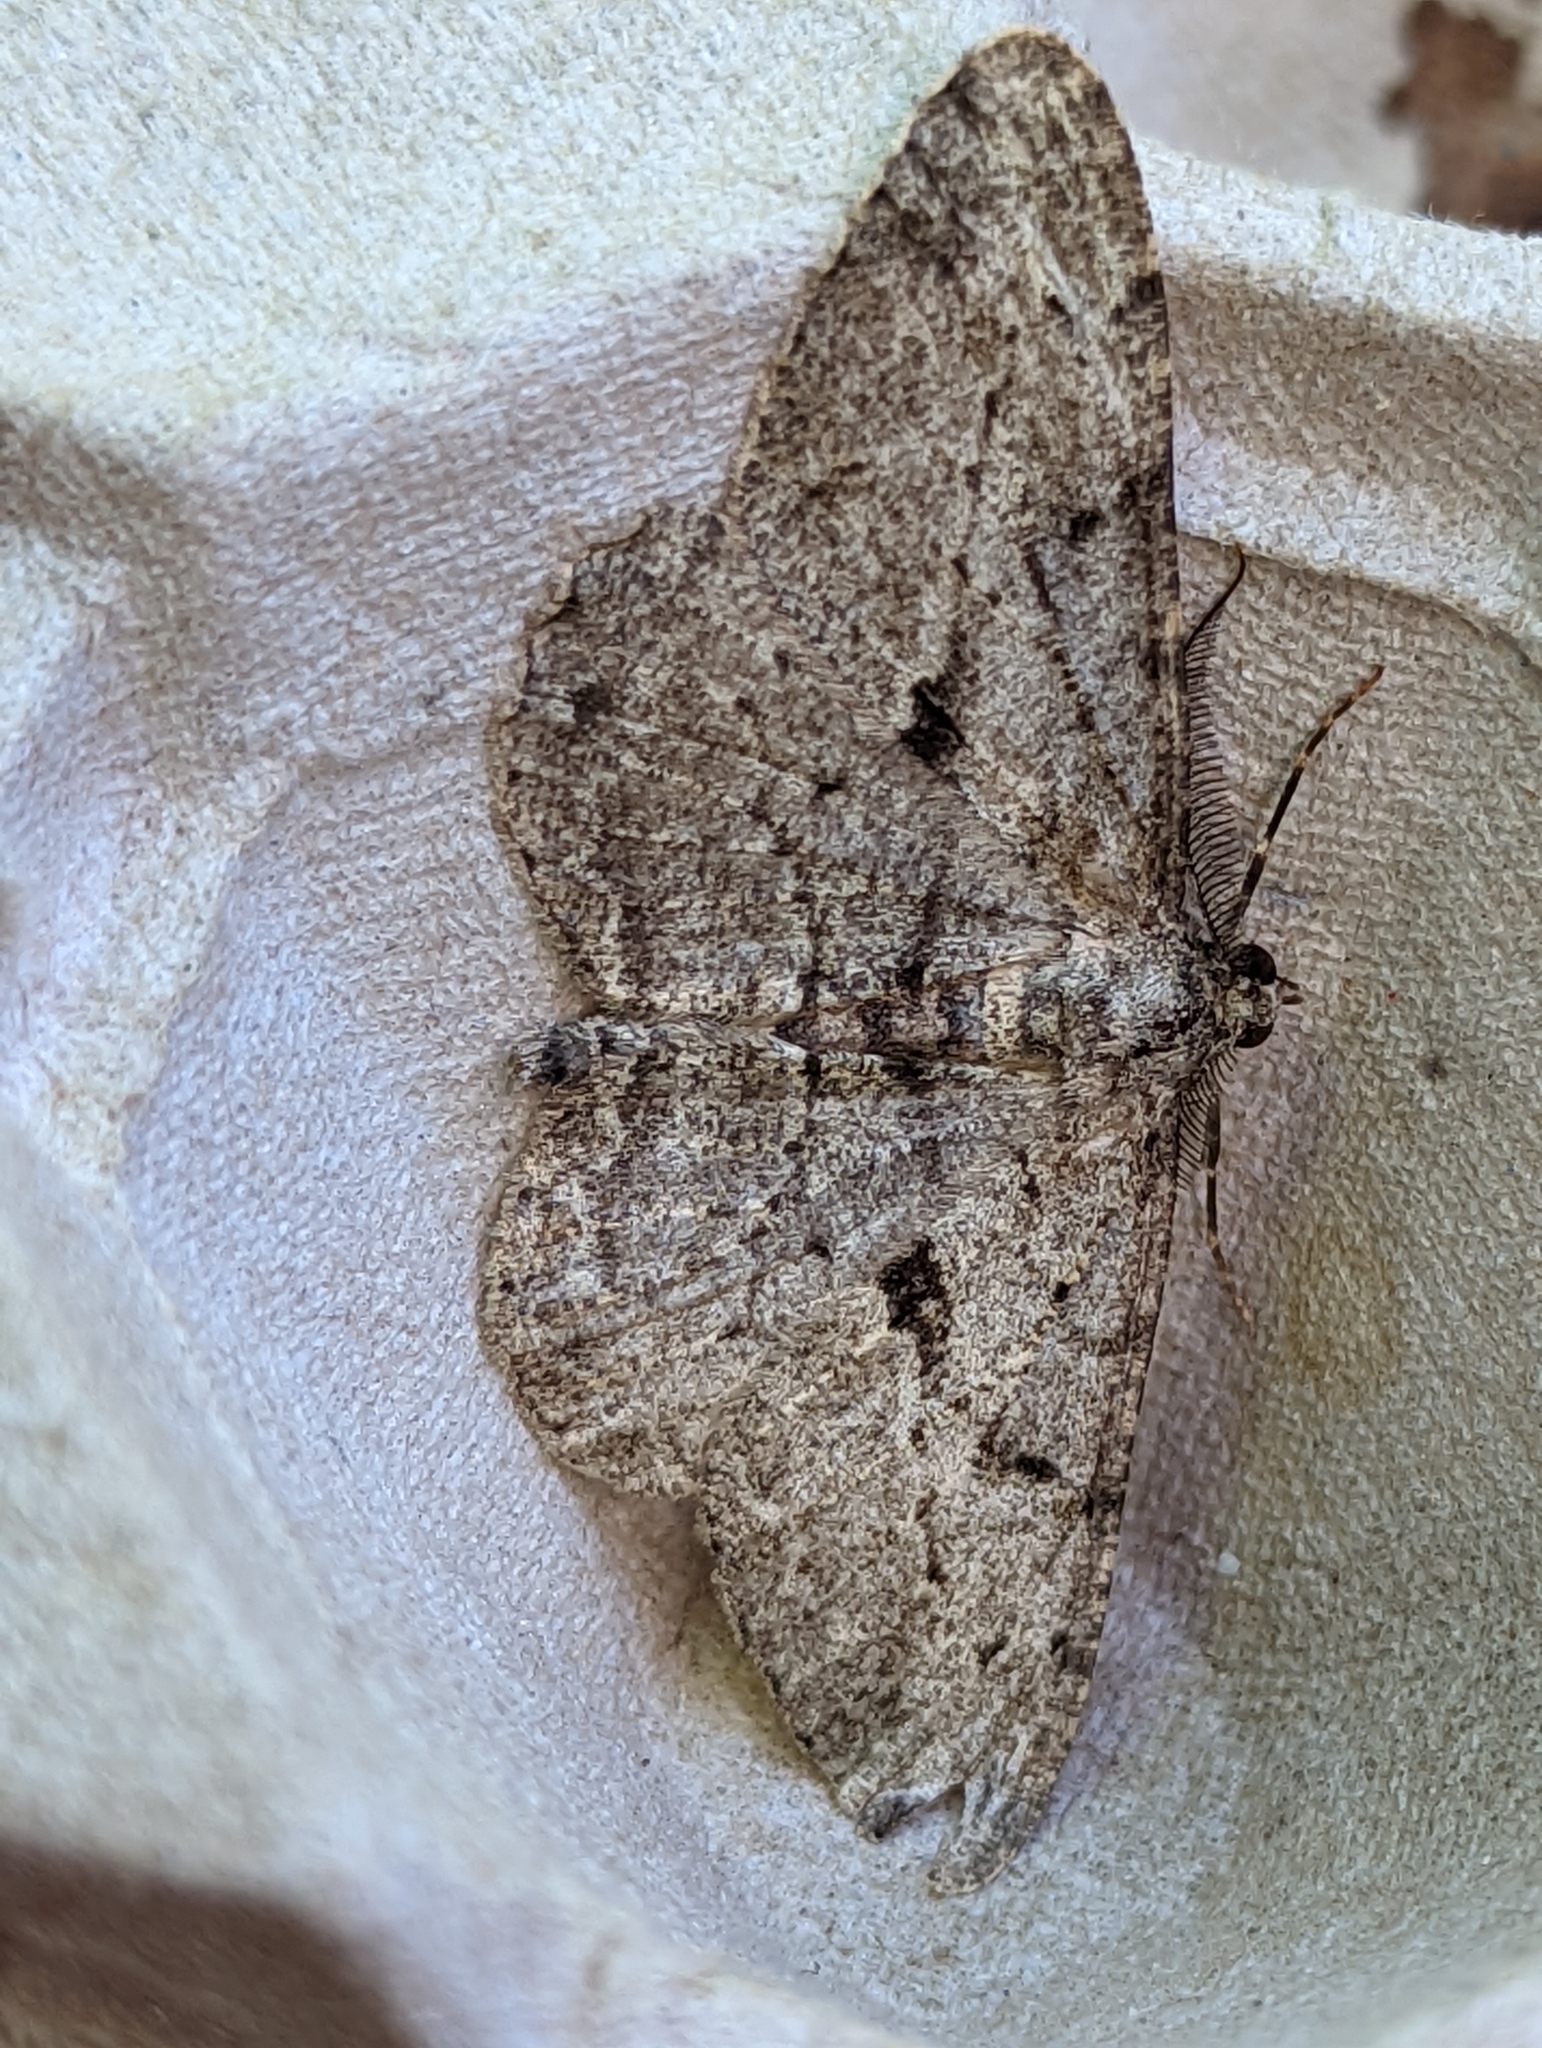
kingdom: Animalia
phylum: Arthropoda
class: Insecta
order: Lepidoptera
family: Geometridae
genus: Peribatodes
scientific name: Peribatodes rhomboidaria
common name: Willow beauty
